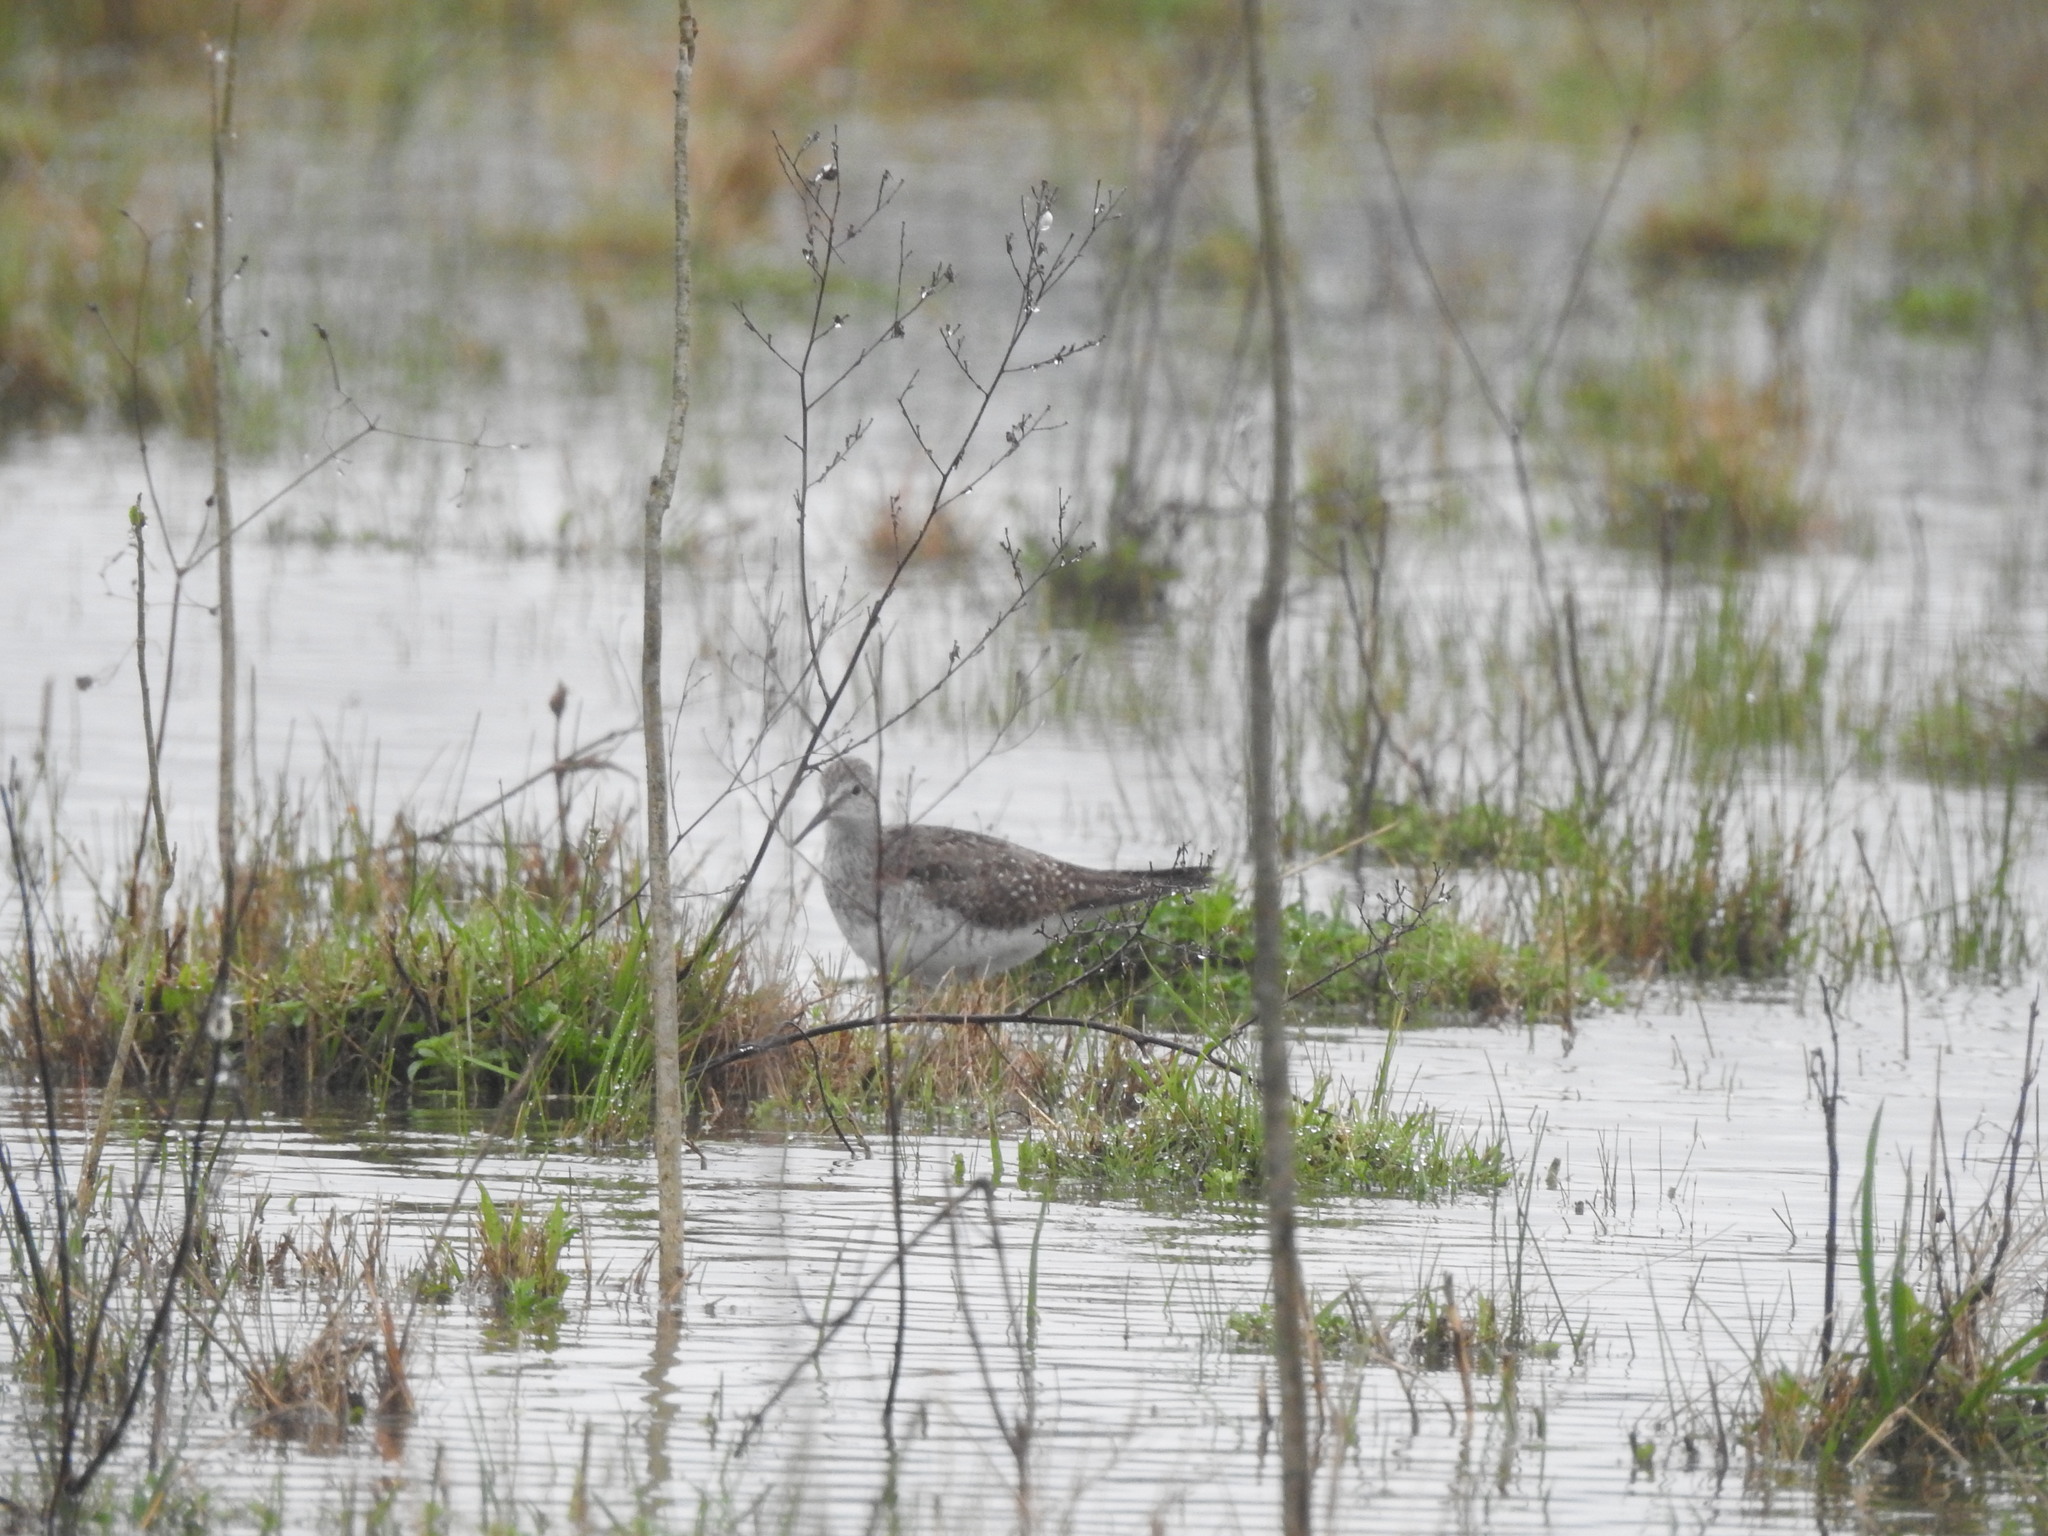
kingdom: Animalia
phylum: Chordata
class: Aves
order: Charadriiformes
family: Scolopacidae
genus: Tringa
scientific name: Tringa flavipes
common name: Lesser yellowlegs
